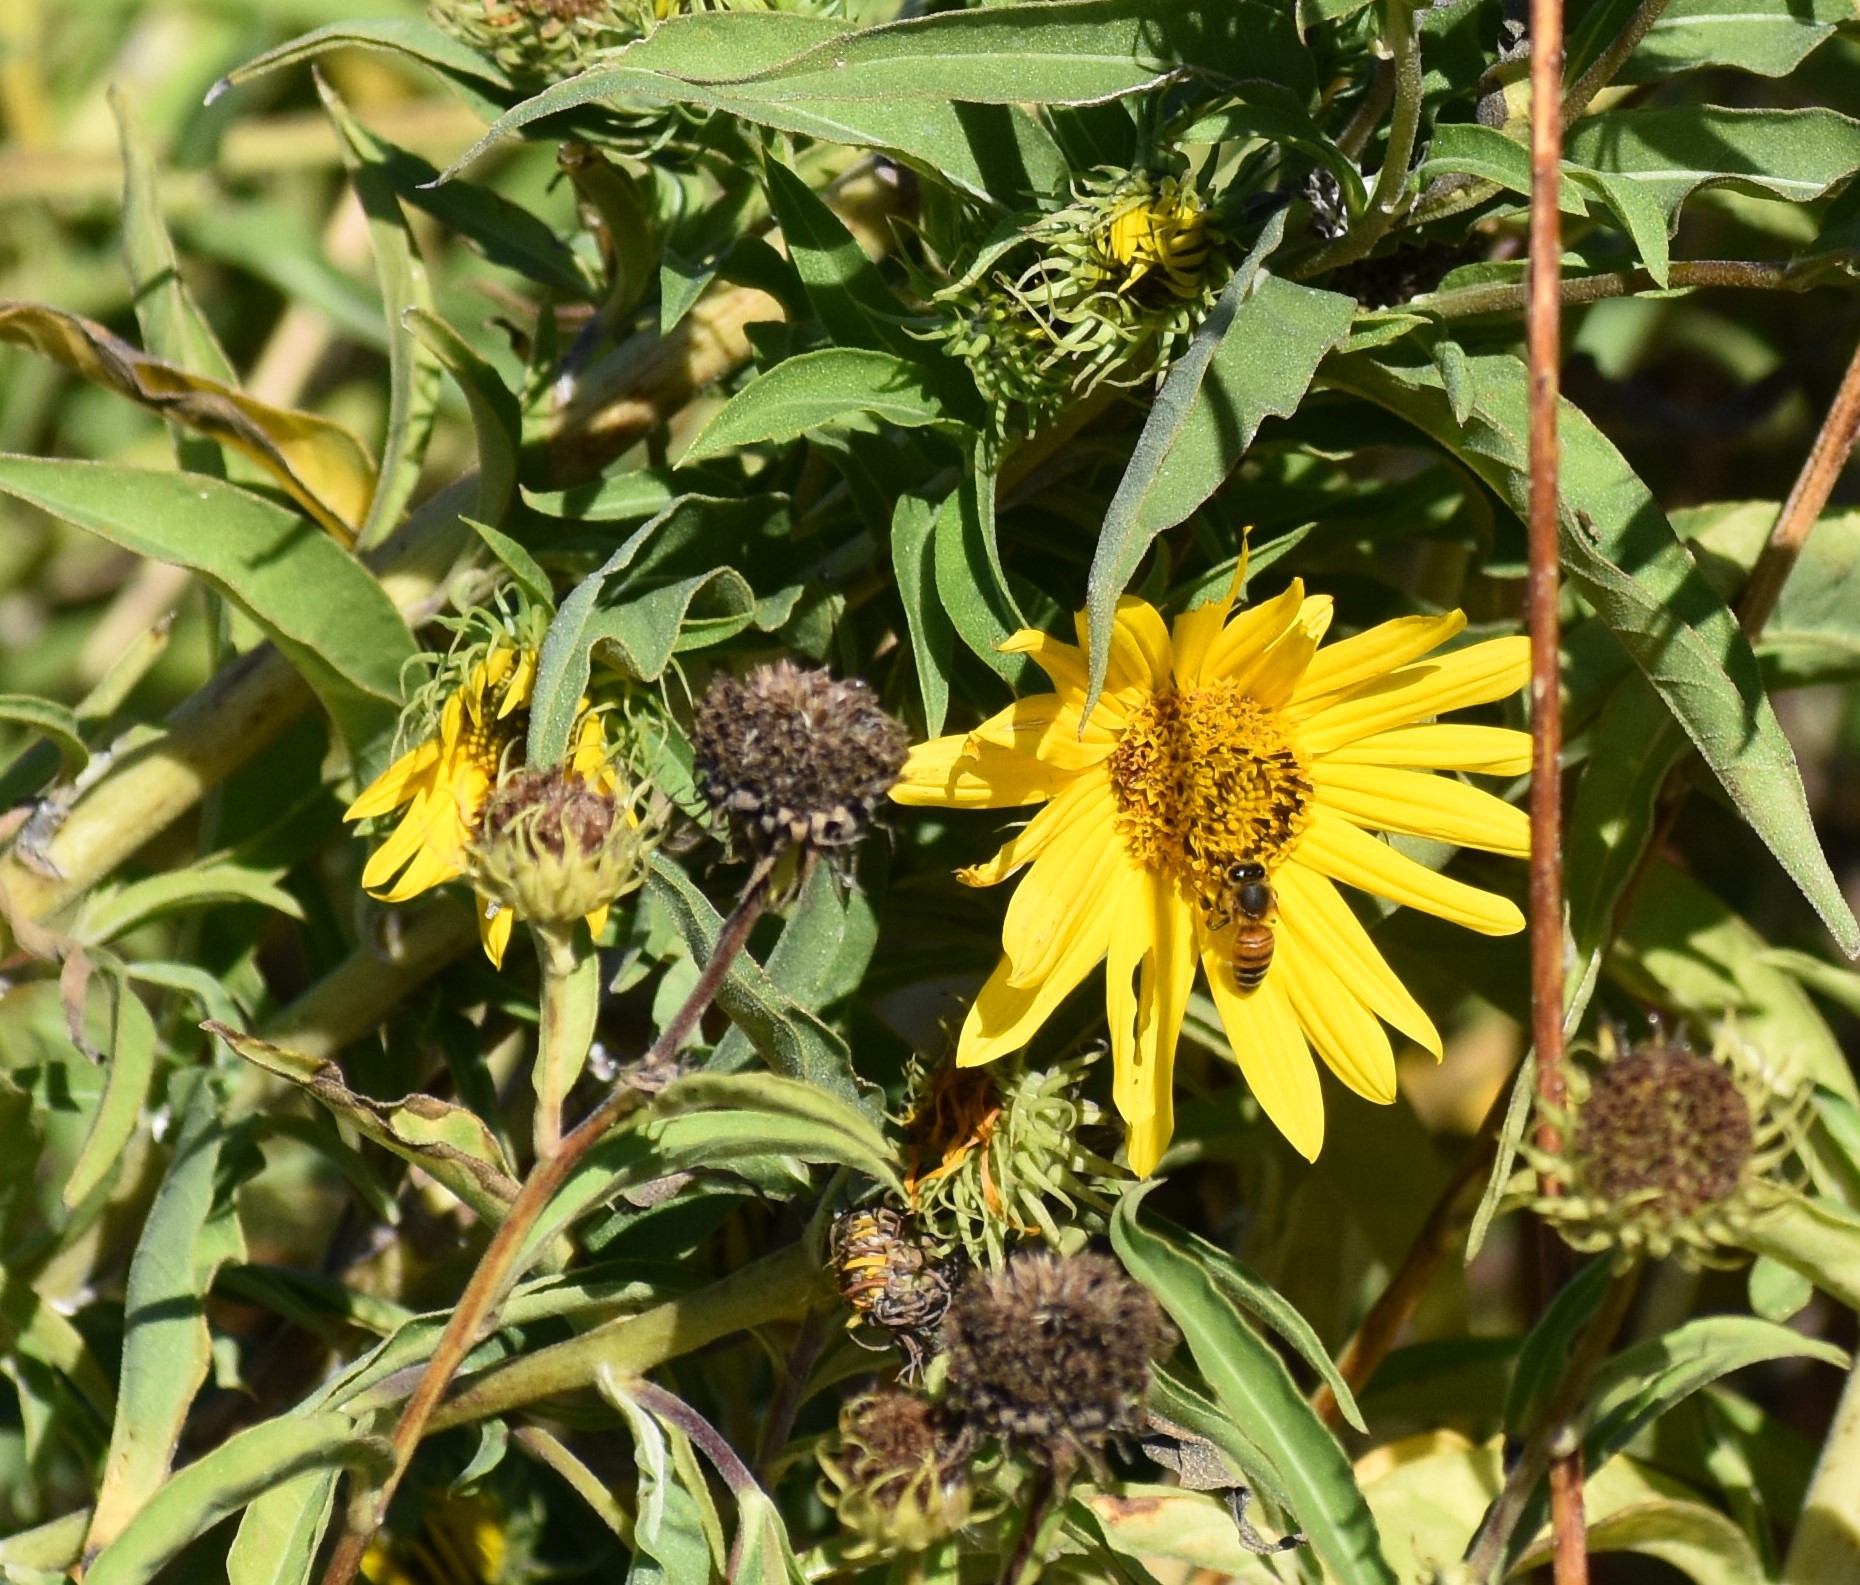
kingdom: Animalia
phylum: Arthropoda
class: Insecta
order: Hymenoptera
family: Apidae
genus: Apis
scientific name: Apis mellifera
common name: Honey bee
